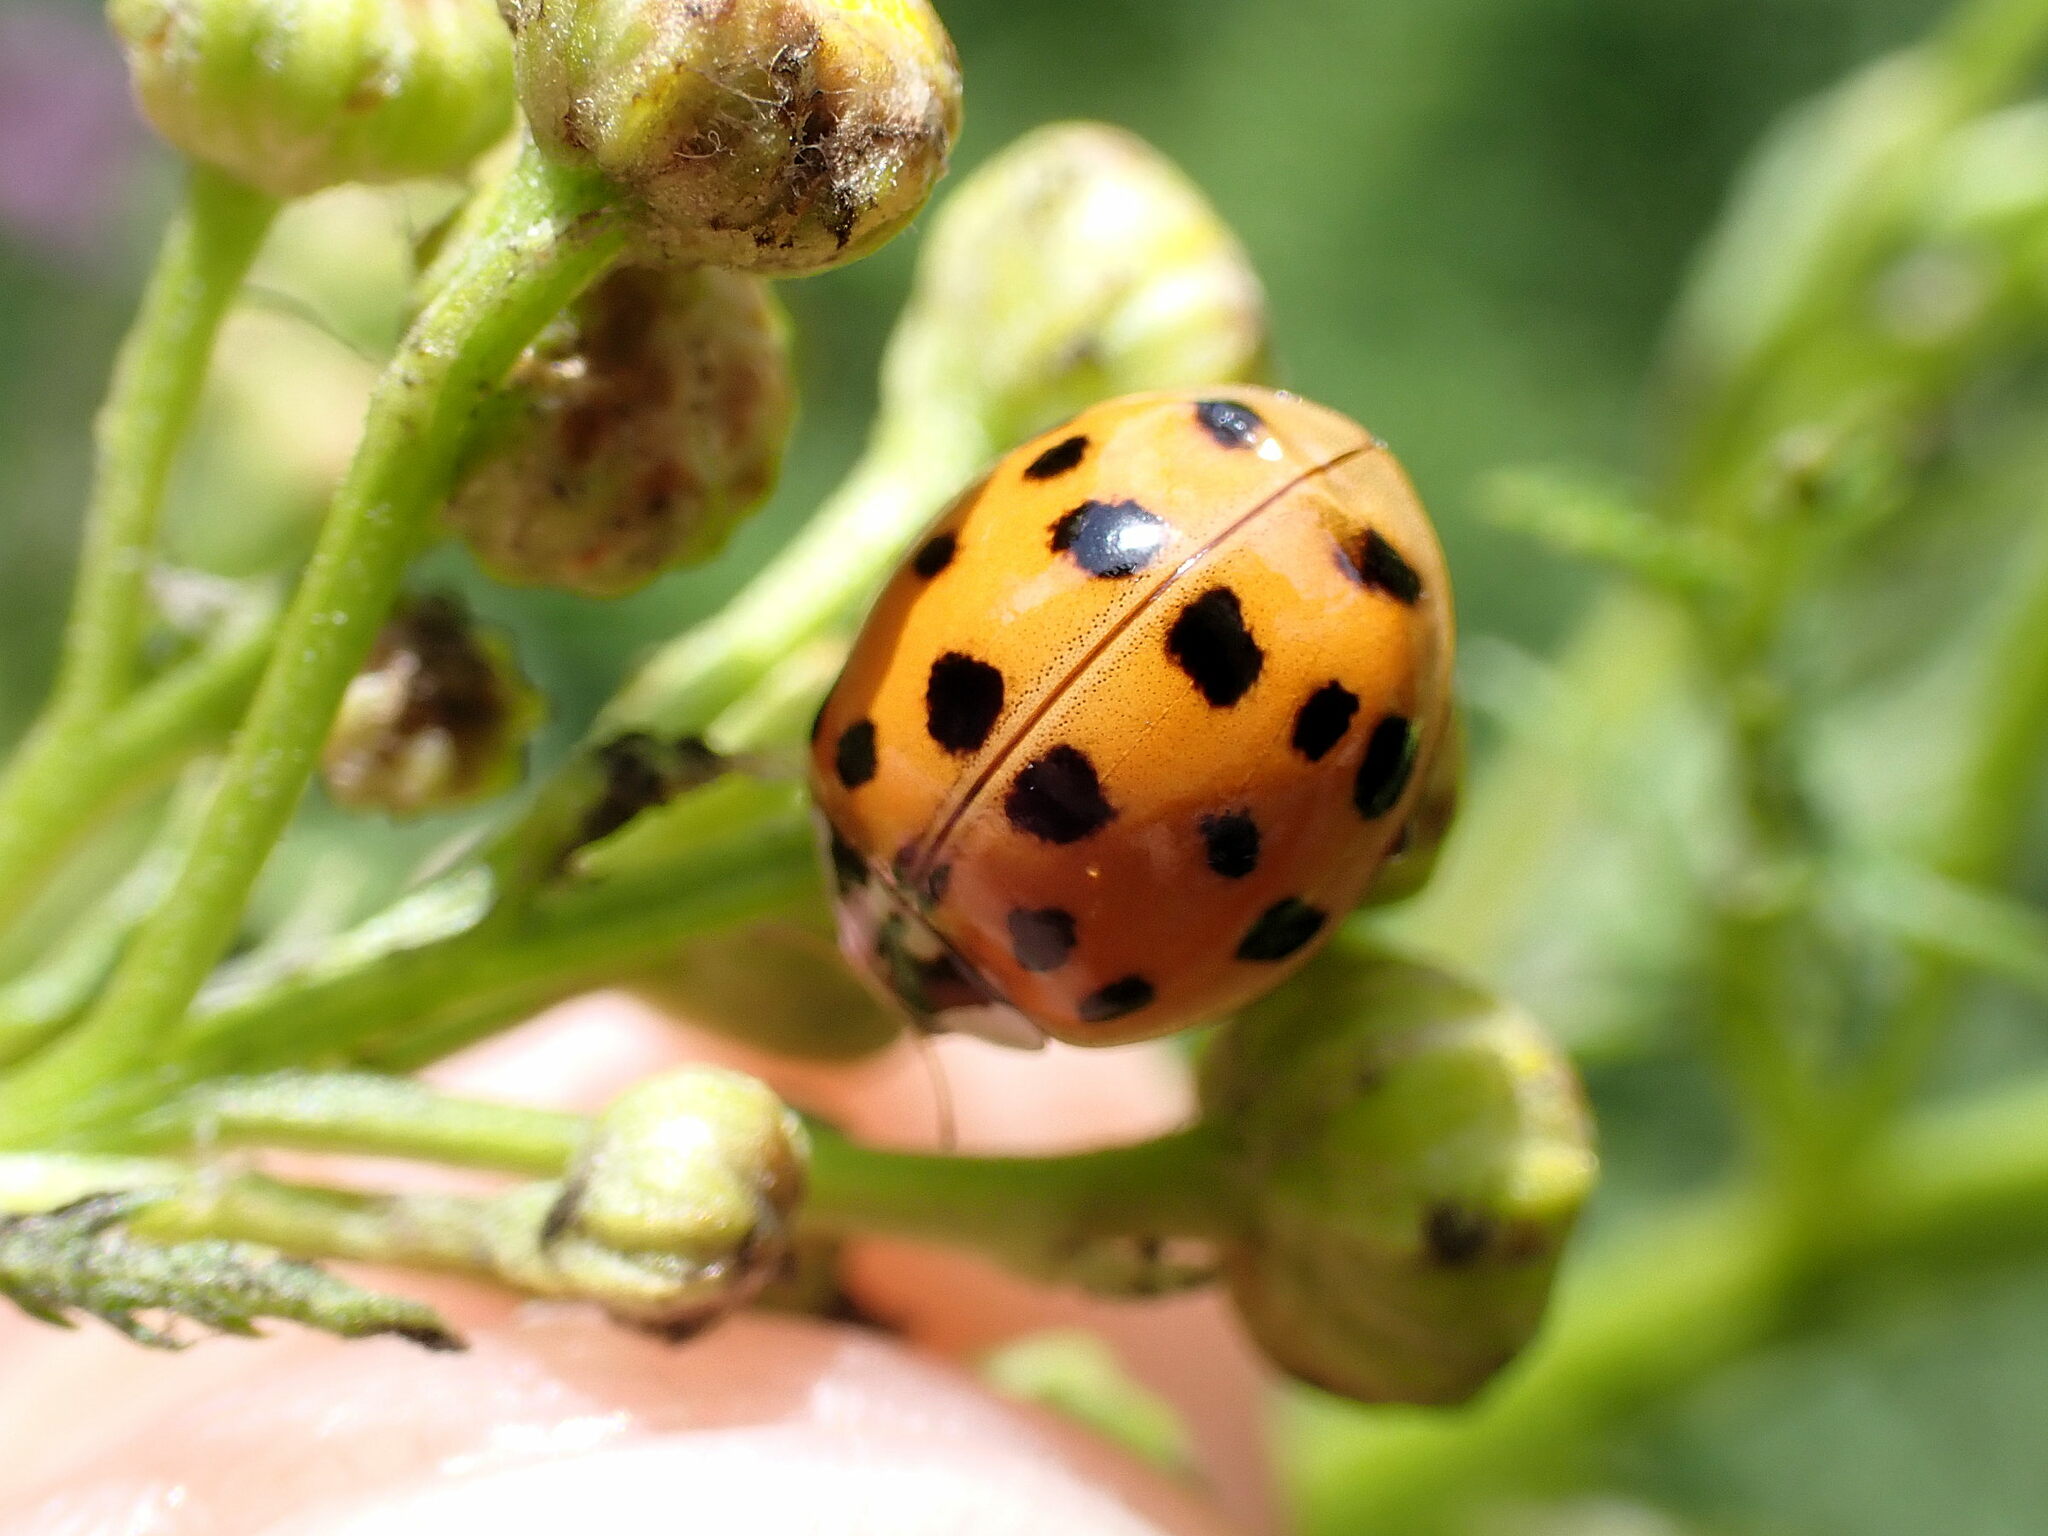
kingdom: Animalia
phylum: Arthropoda
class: Insecta
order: Coleoptera
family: Coccinellidae
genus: Harmonia
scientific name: Harmonia axyridis
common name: Harlequin ladybird
